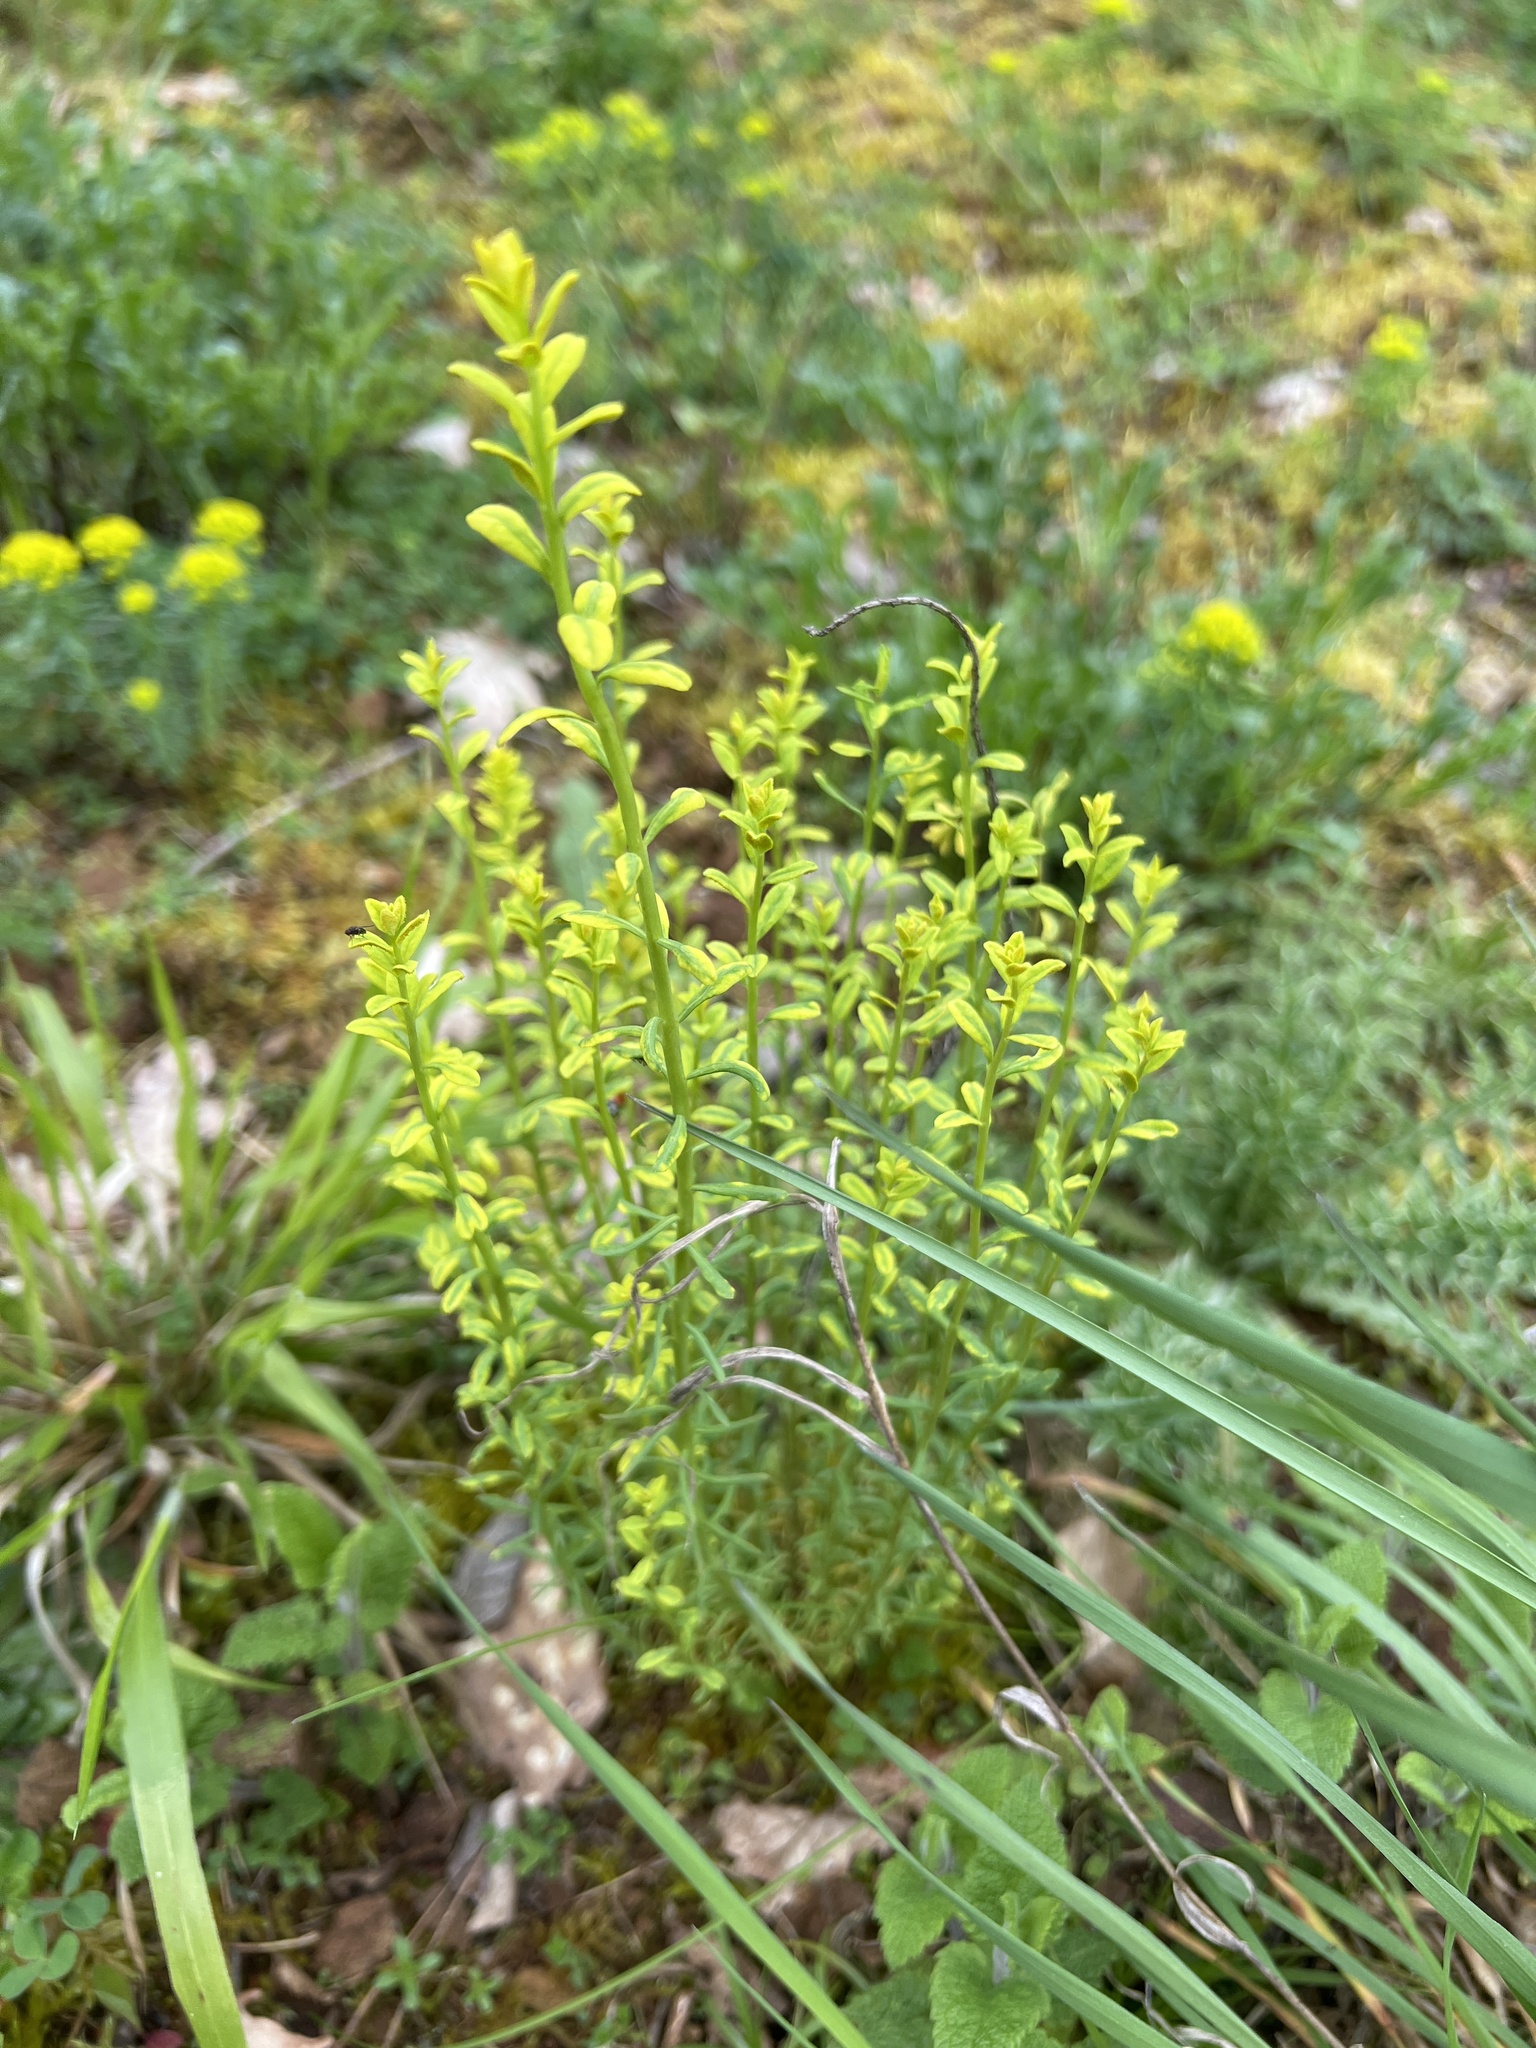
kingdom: Fungi
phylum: Basidiomycota
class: Pucciniomycetes
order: Pucciniales
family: Pucciniaceae
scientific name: Pucciniaceae
